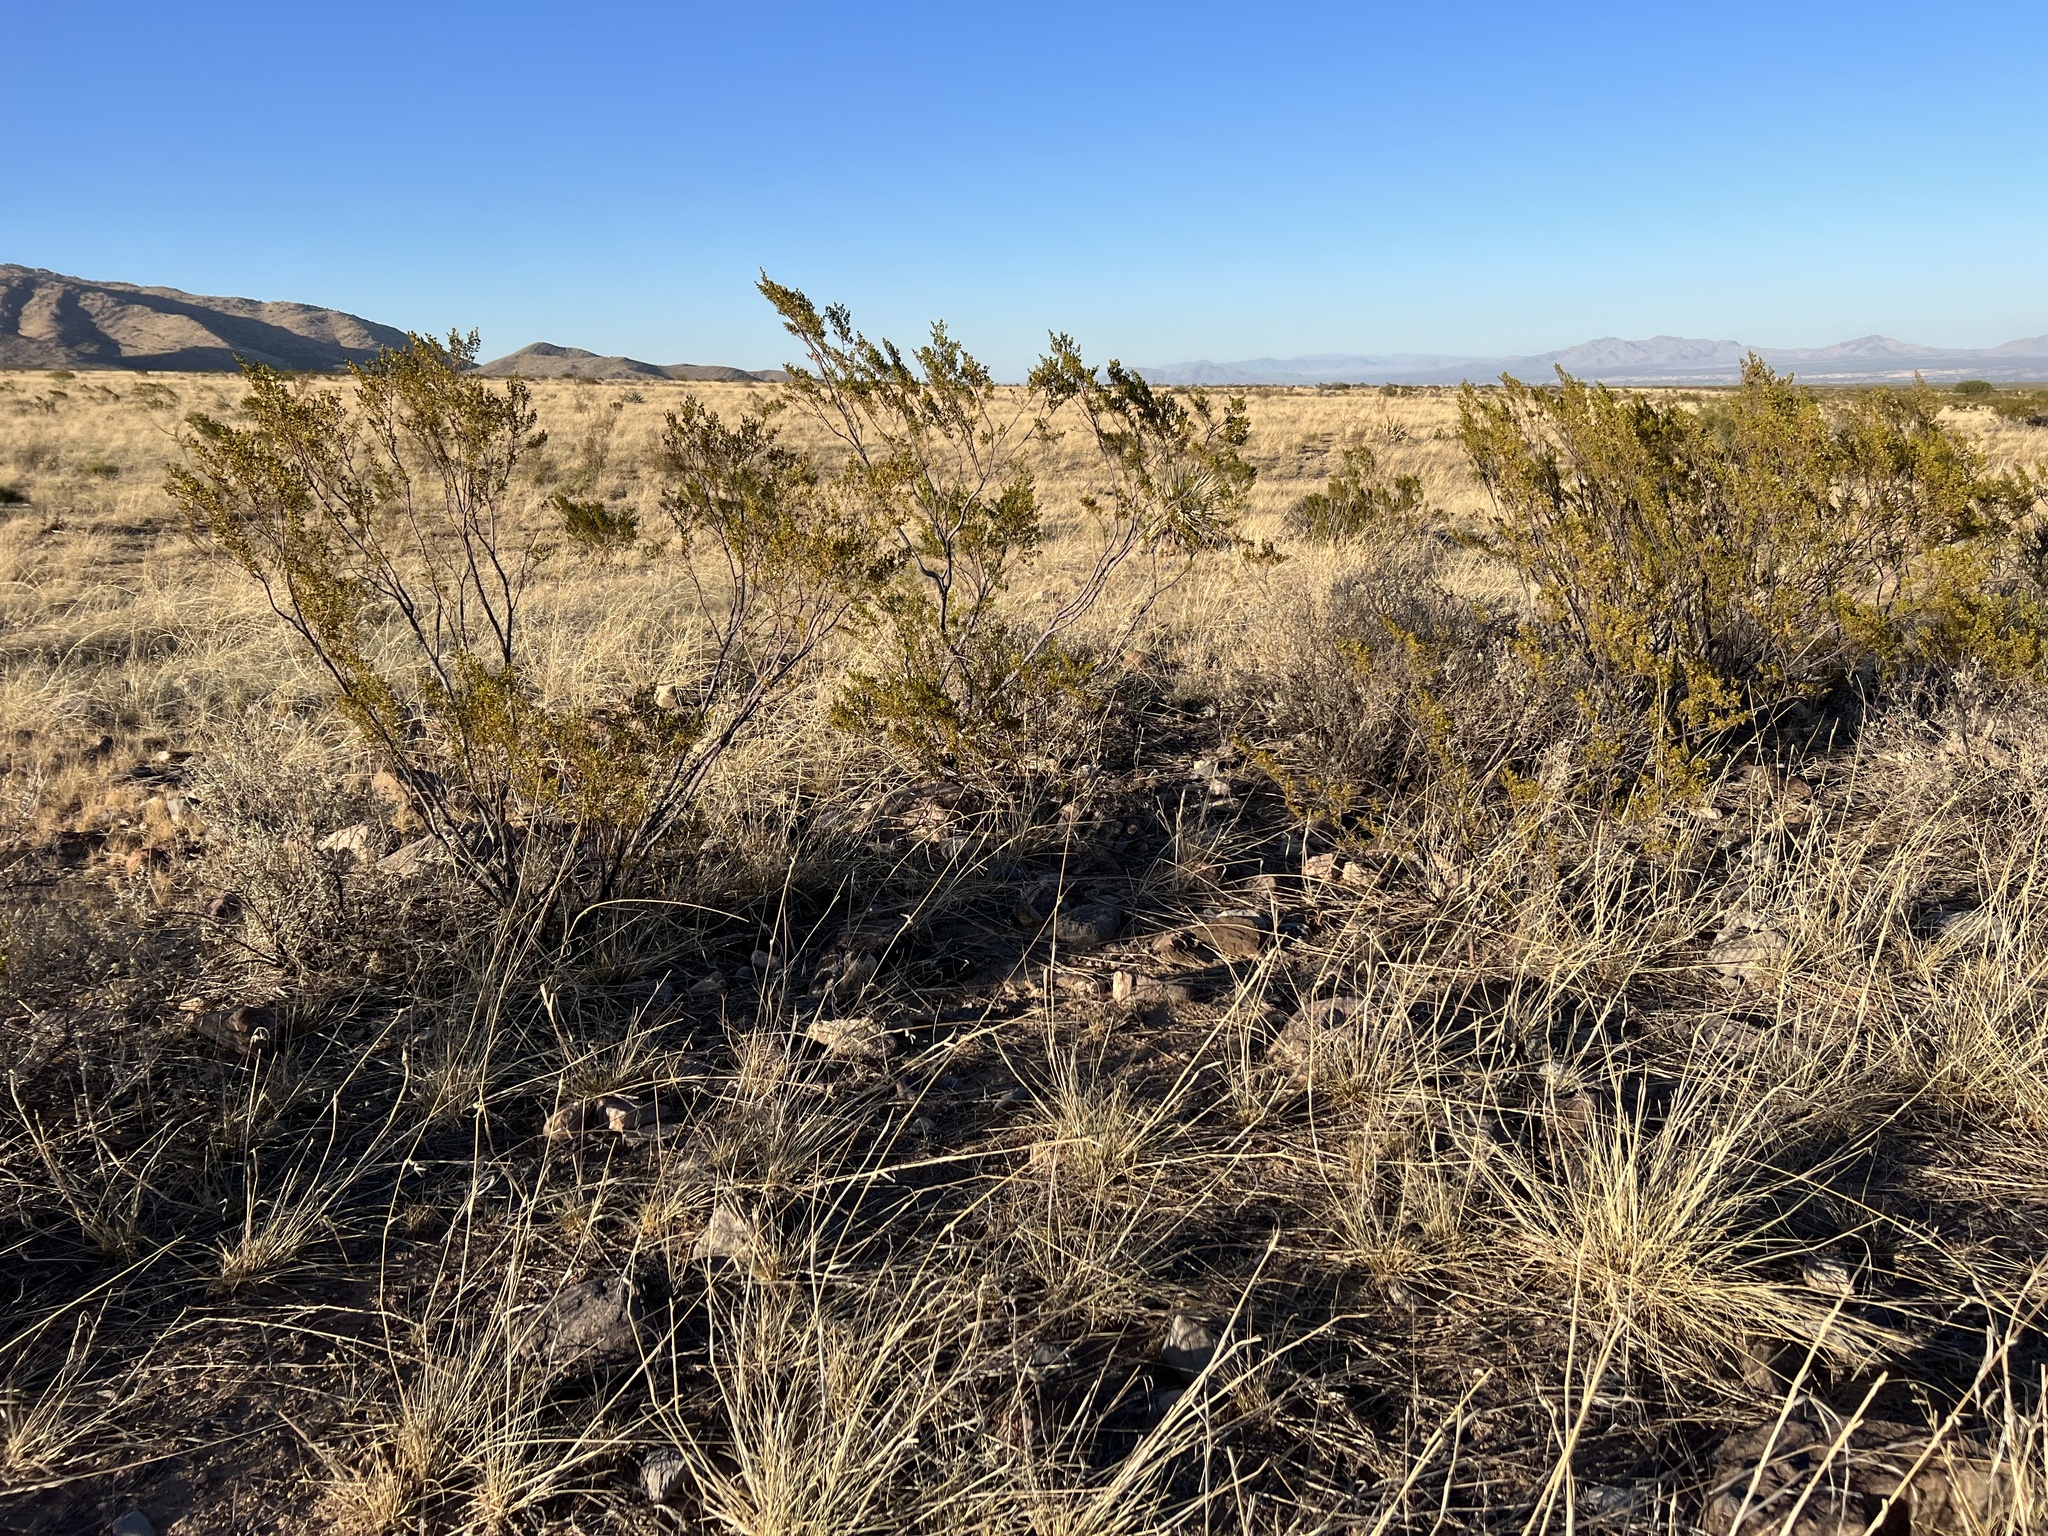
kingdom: Plantae
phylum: Tracheophyta
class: Magnoliopsida
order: Zygophyllales
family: Zygophyllaceae
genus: Larrea
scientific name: Larrea tridentata
